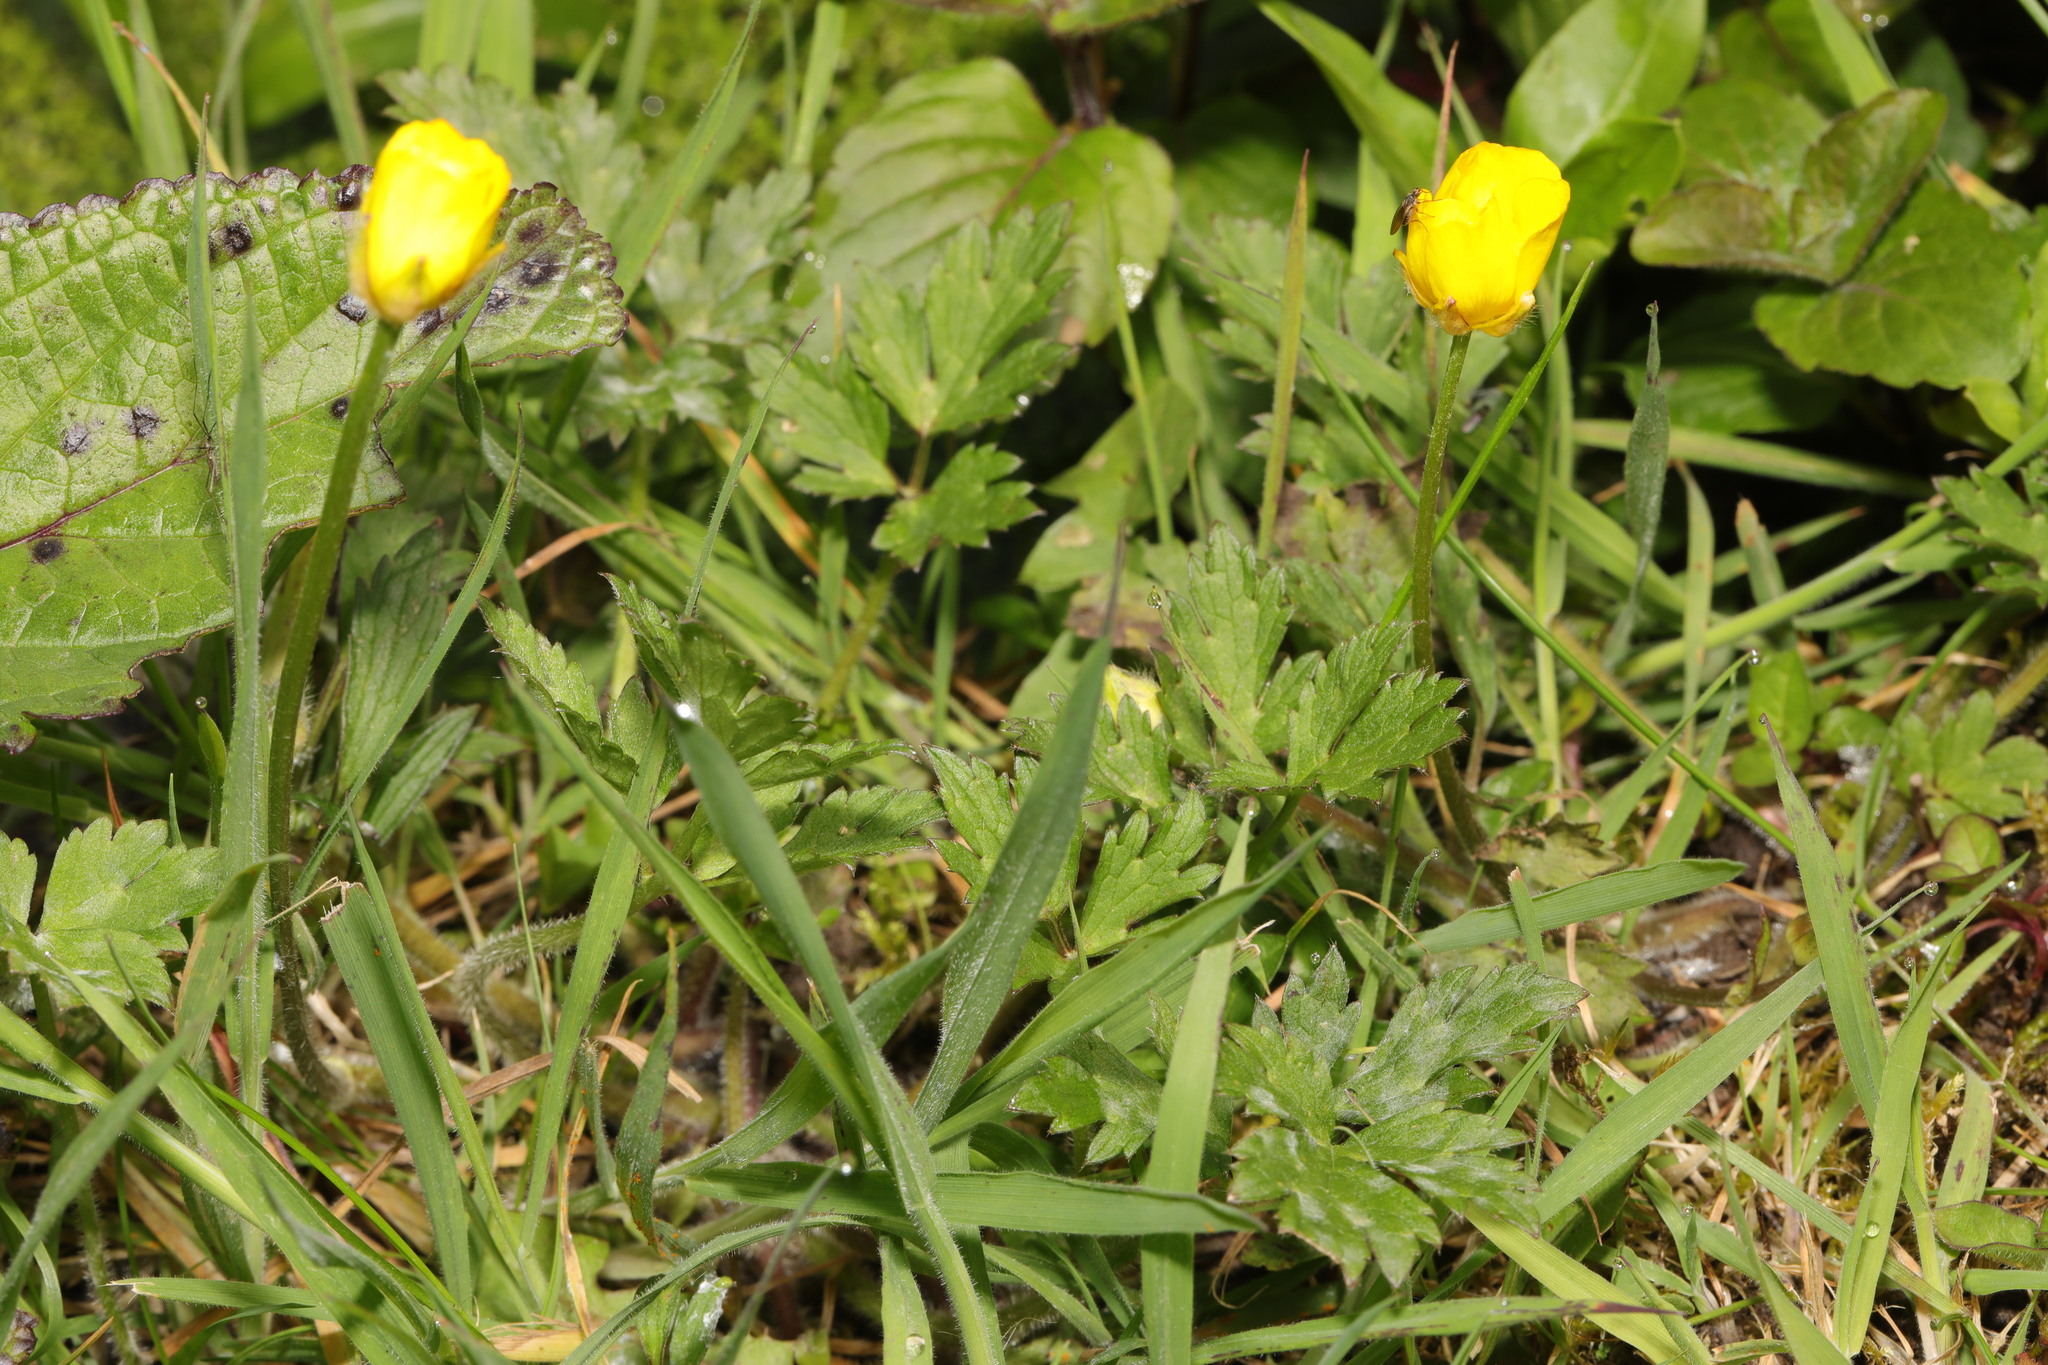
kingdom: Plantae
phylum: Tracheophyta
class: Magnoliopsida
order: Ranunculales
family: Ranunculaceae
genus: Ranunculus
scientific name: Ranunculus repens
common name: Creeping buttercup
